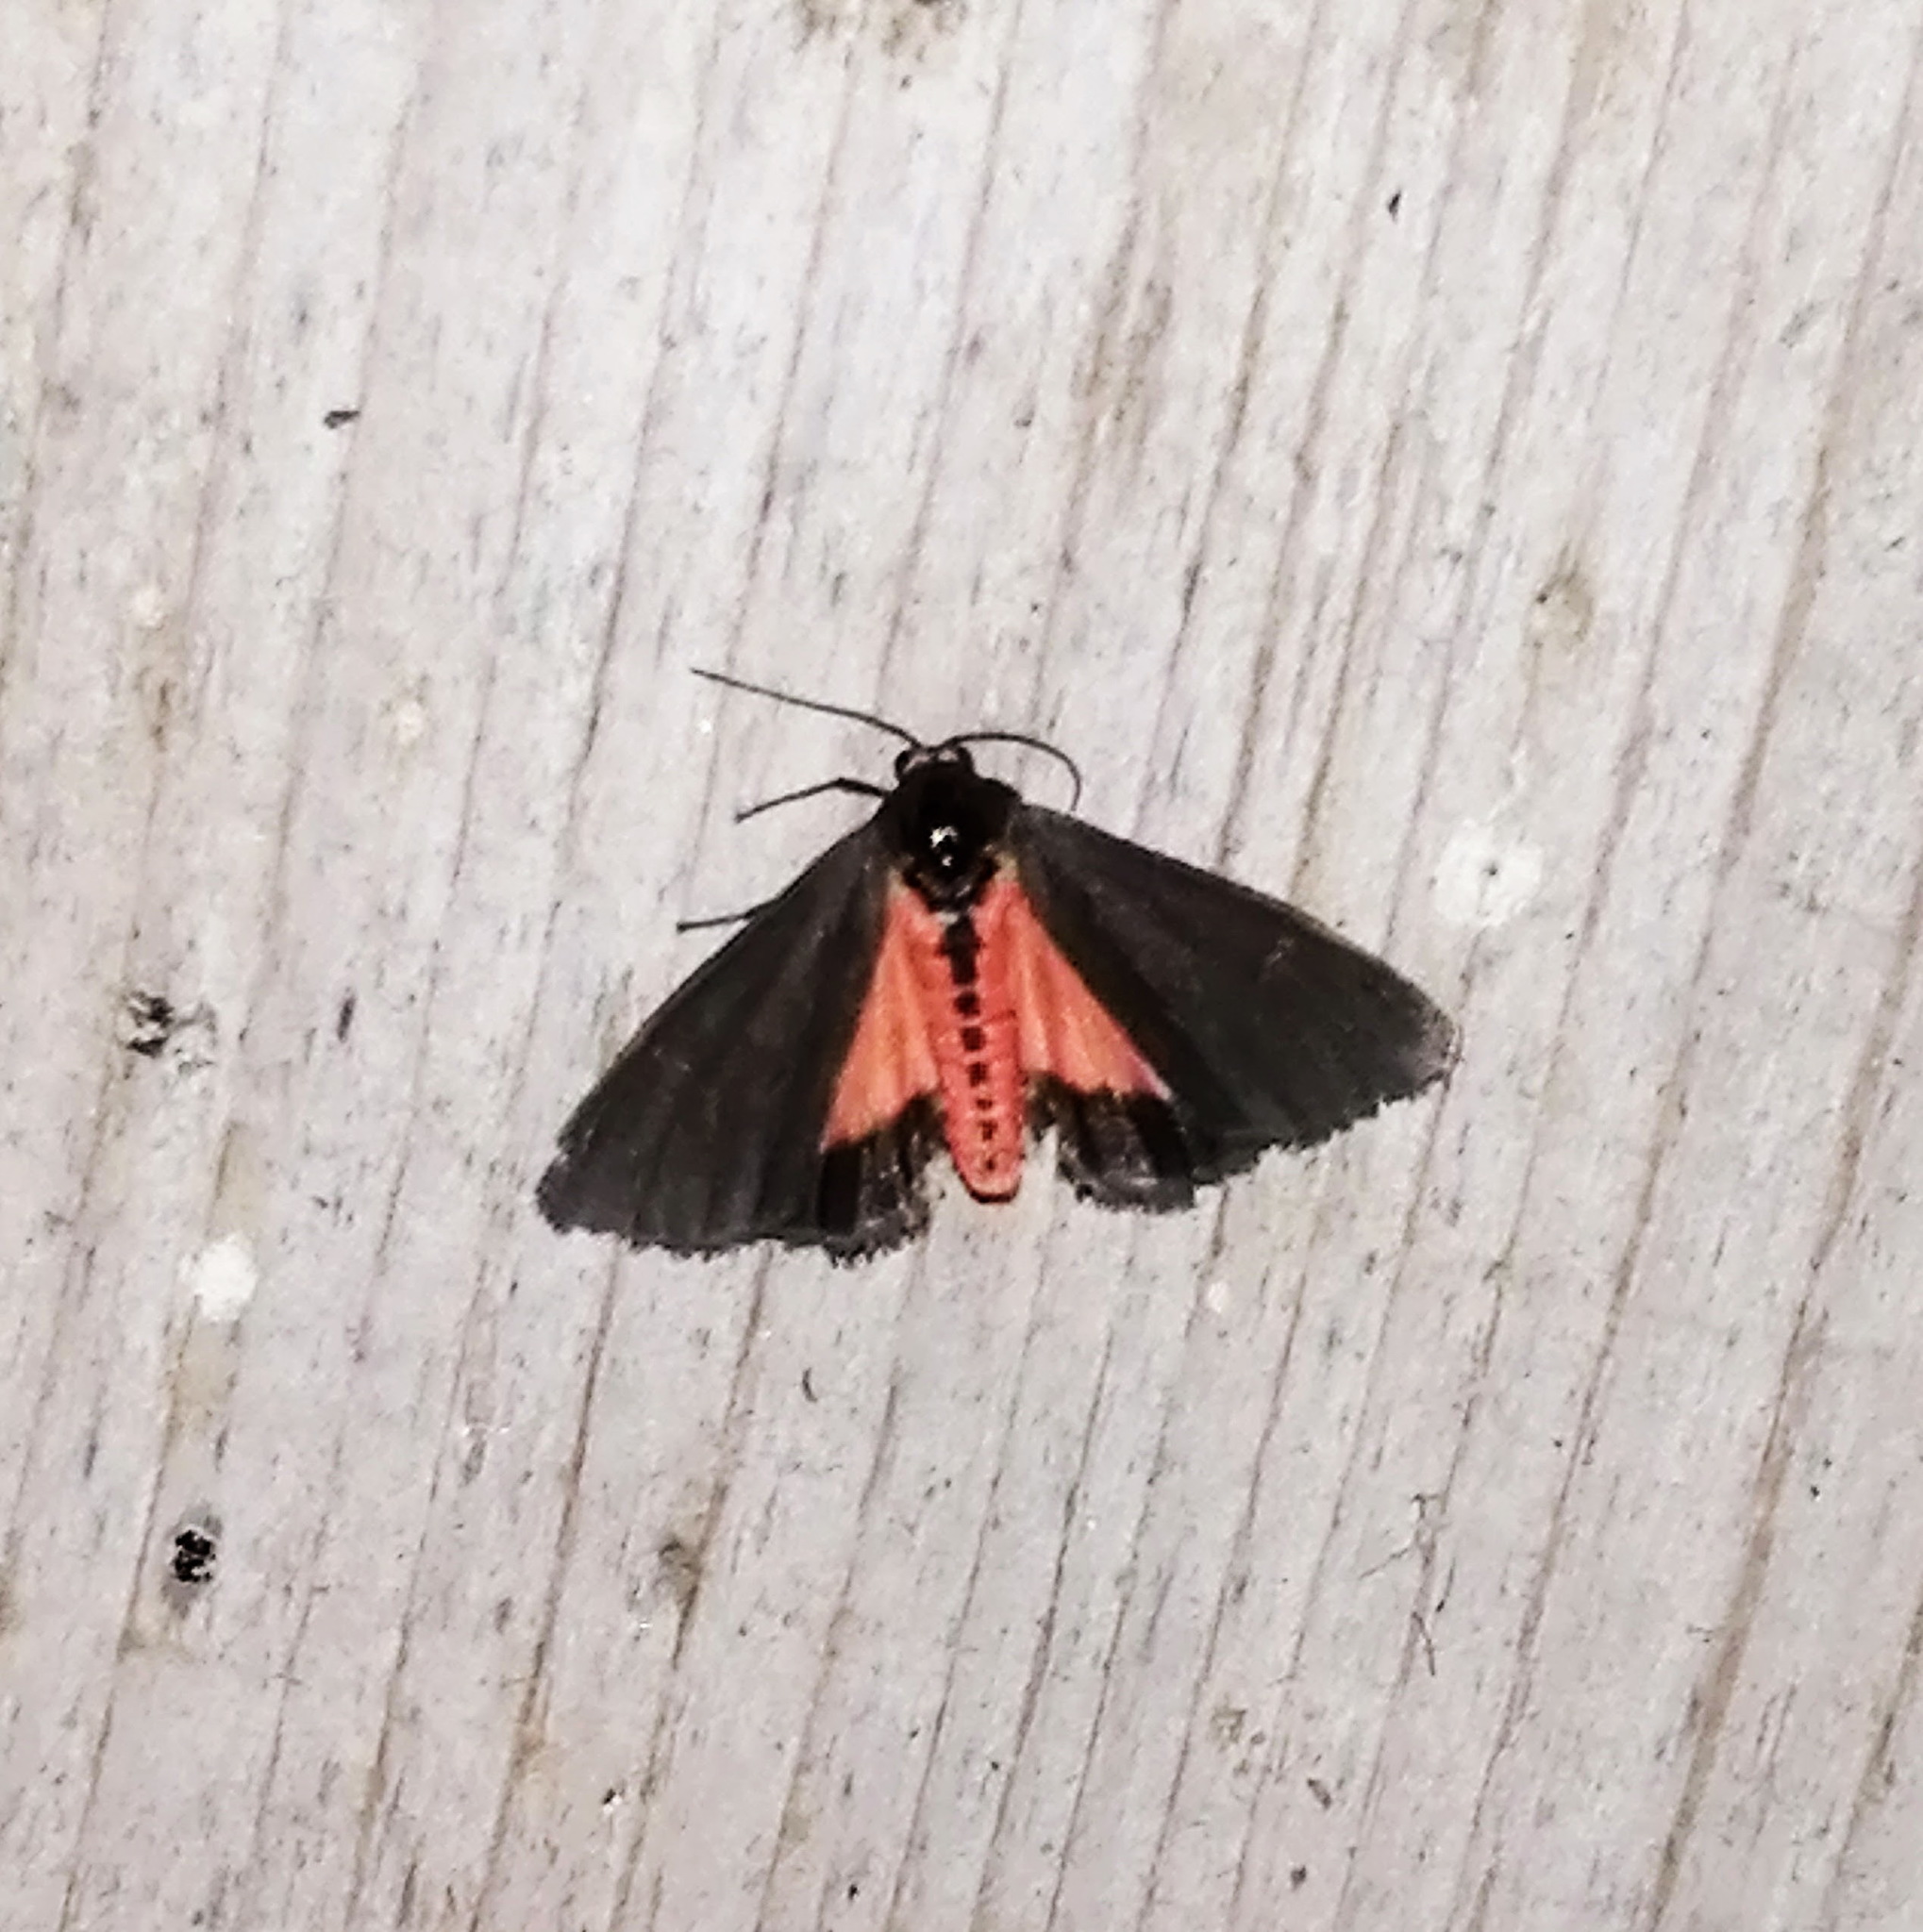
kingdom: Animalia
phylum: Arthropoda
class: Insecta
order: Lepidoptera
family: Erebidae
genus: Virbia
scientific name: Virbia laeta
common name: Joyful holomelina moth
